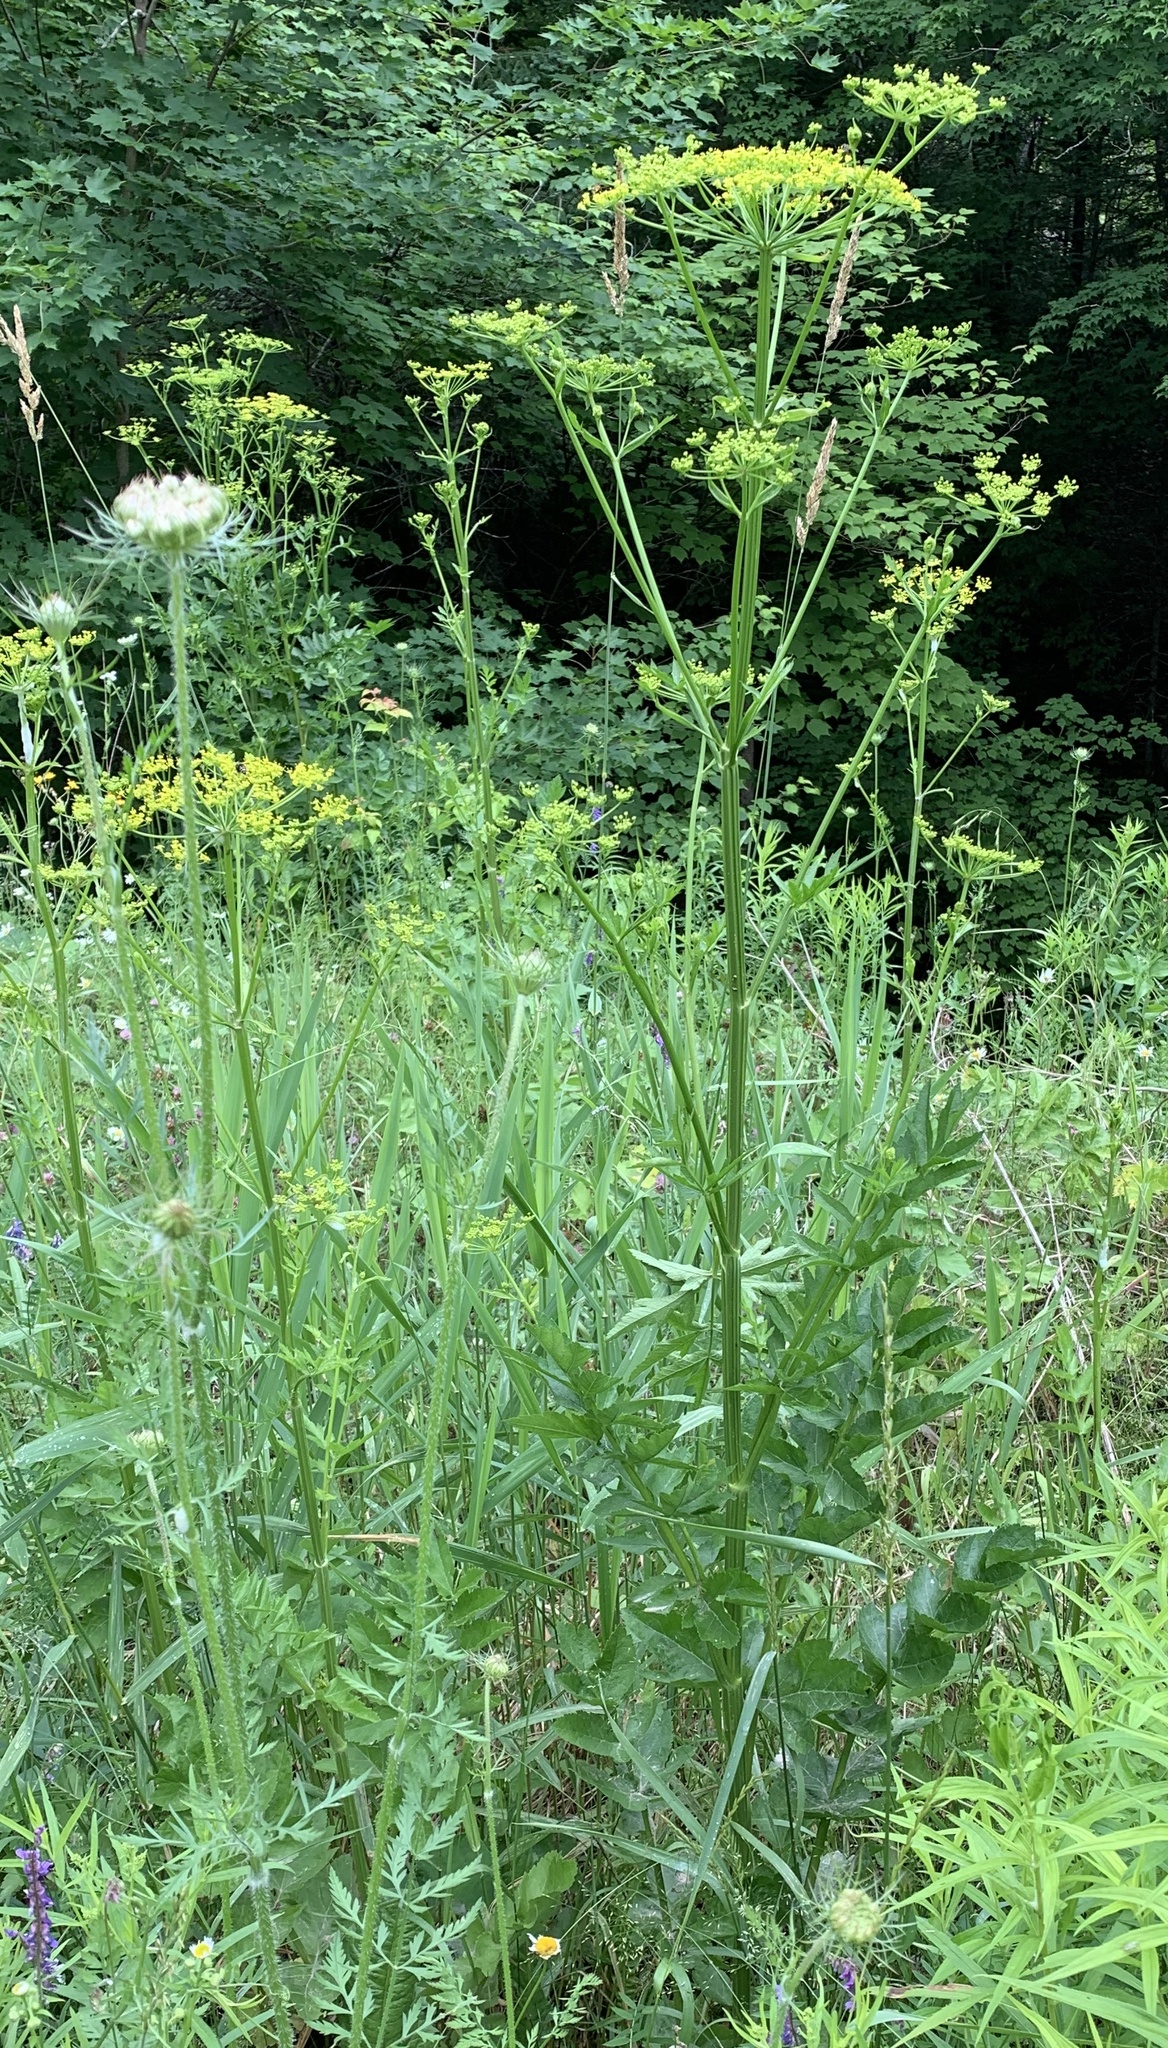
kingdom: Plantae
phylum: Tracheophyta
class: Magnoliopsida
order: Apiales
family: Apiaceae
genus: Pastinaca
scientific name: Pastinaca sativa
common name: Wild parsnip
